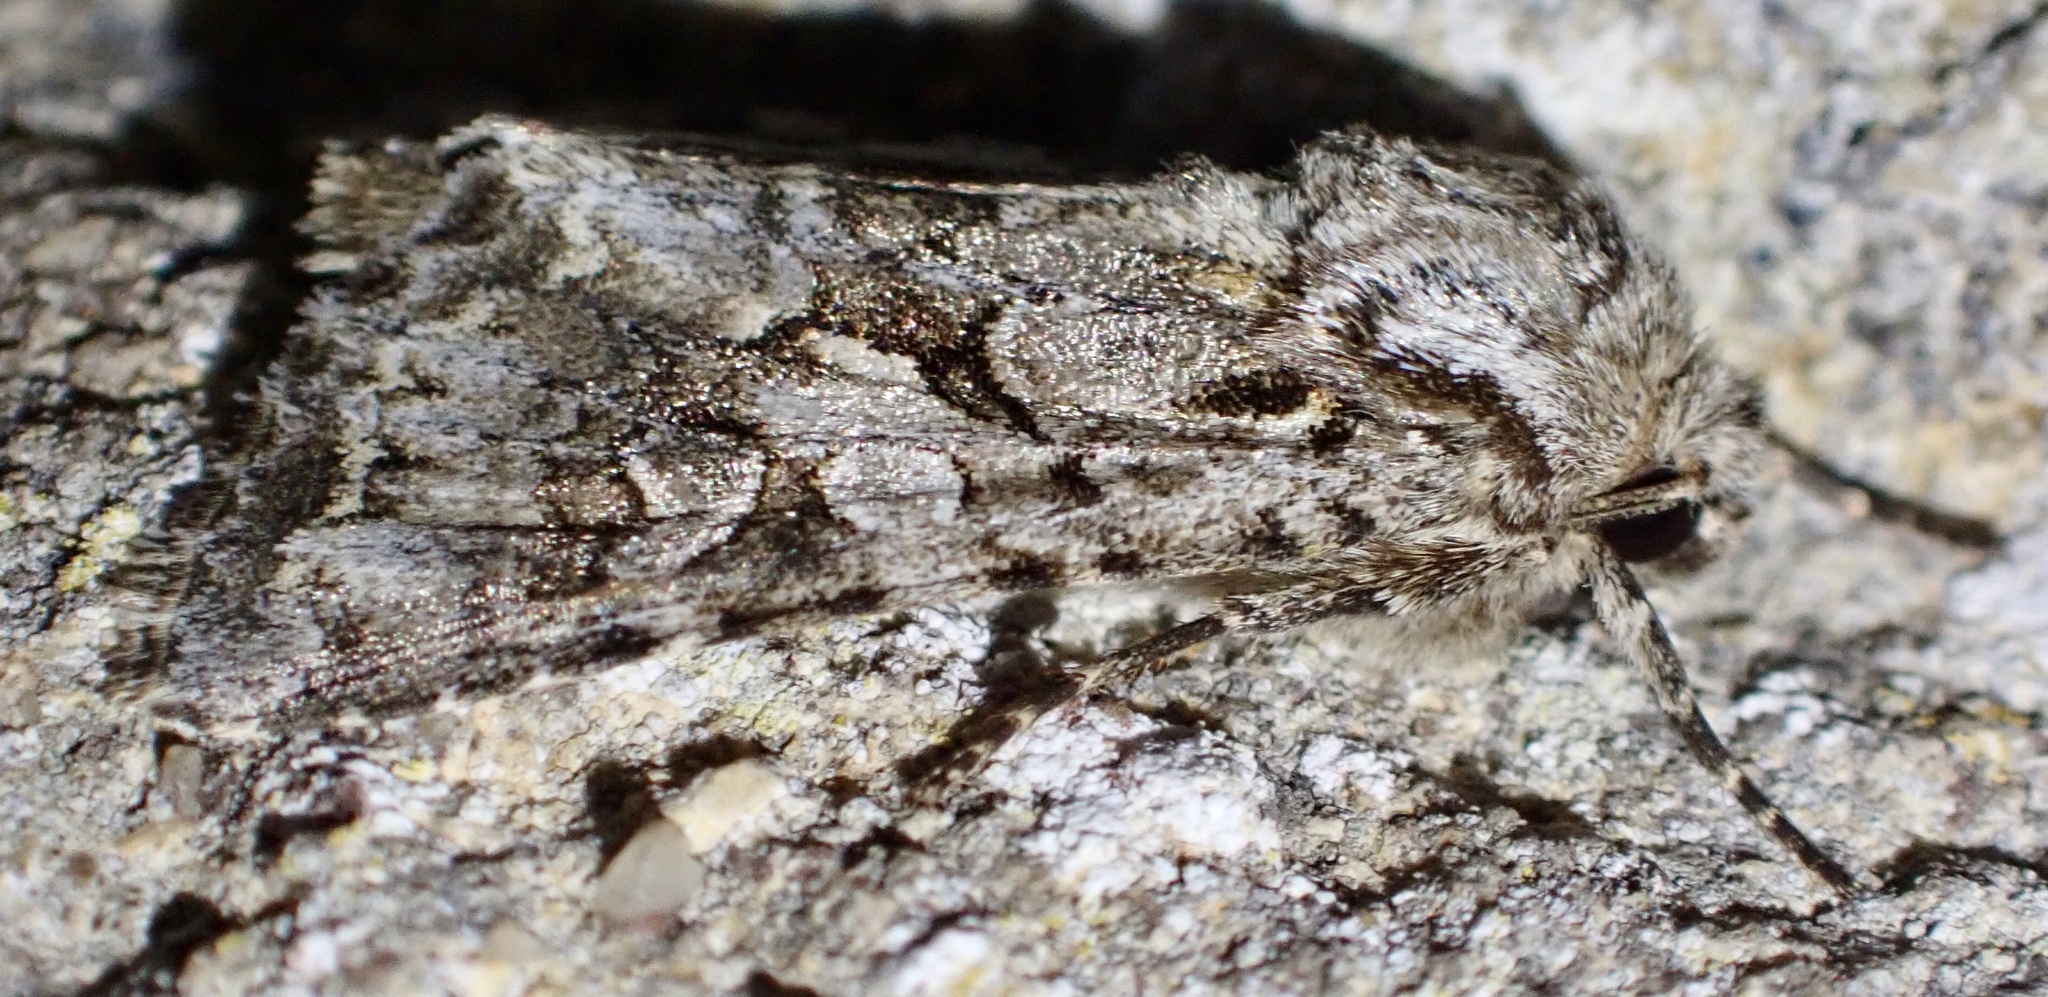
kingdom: Animalia
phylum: Arthropoda
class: Insecta
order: Lepidoptera
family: Noctuidae
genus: Hada
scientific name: Hada plebeja
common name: Shears
